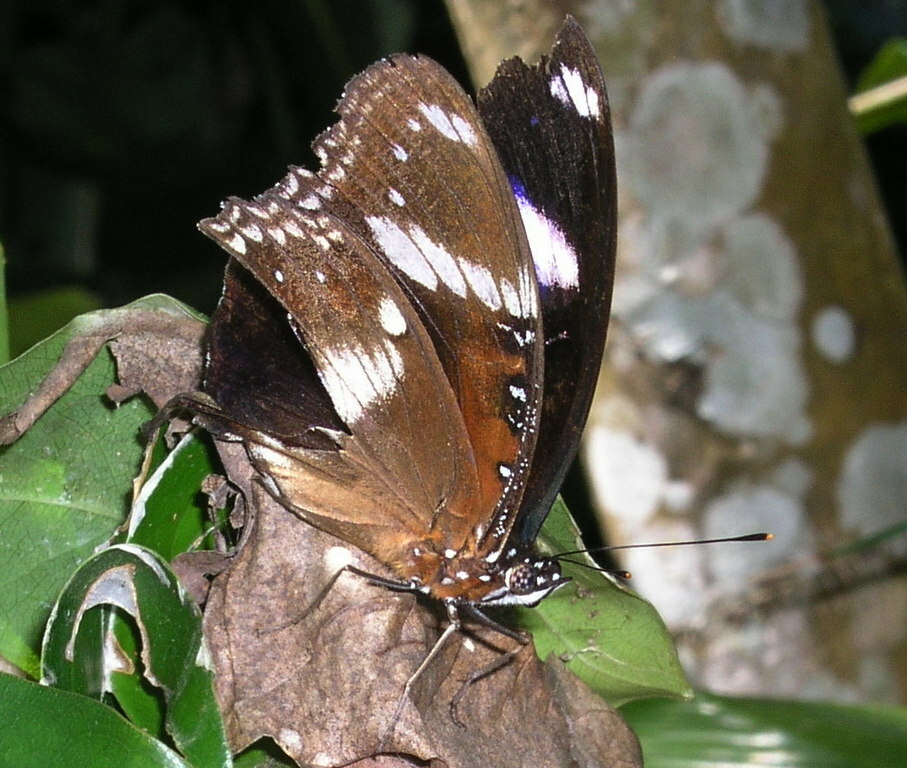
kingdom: Animalia
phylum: Arthropoda
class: Insecta
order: Lepidoptera
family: Nymphalidae
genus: Hypolimnas
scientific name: Hypolimnas bolina
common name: Great eggfly
